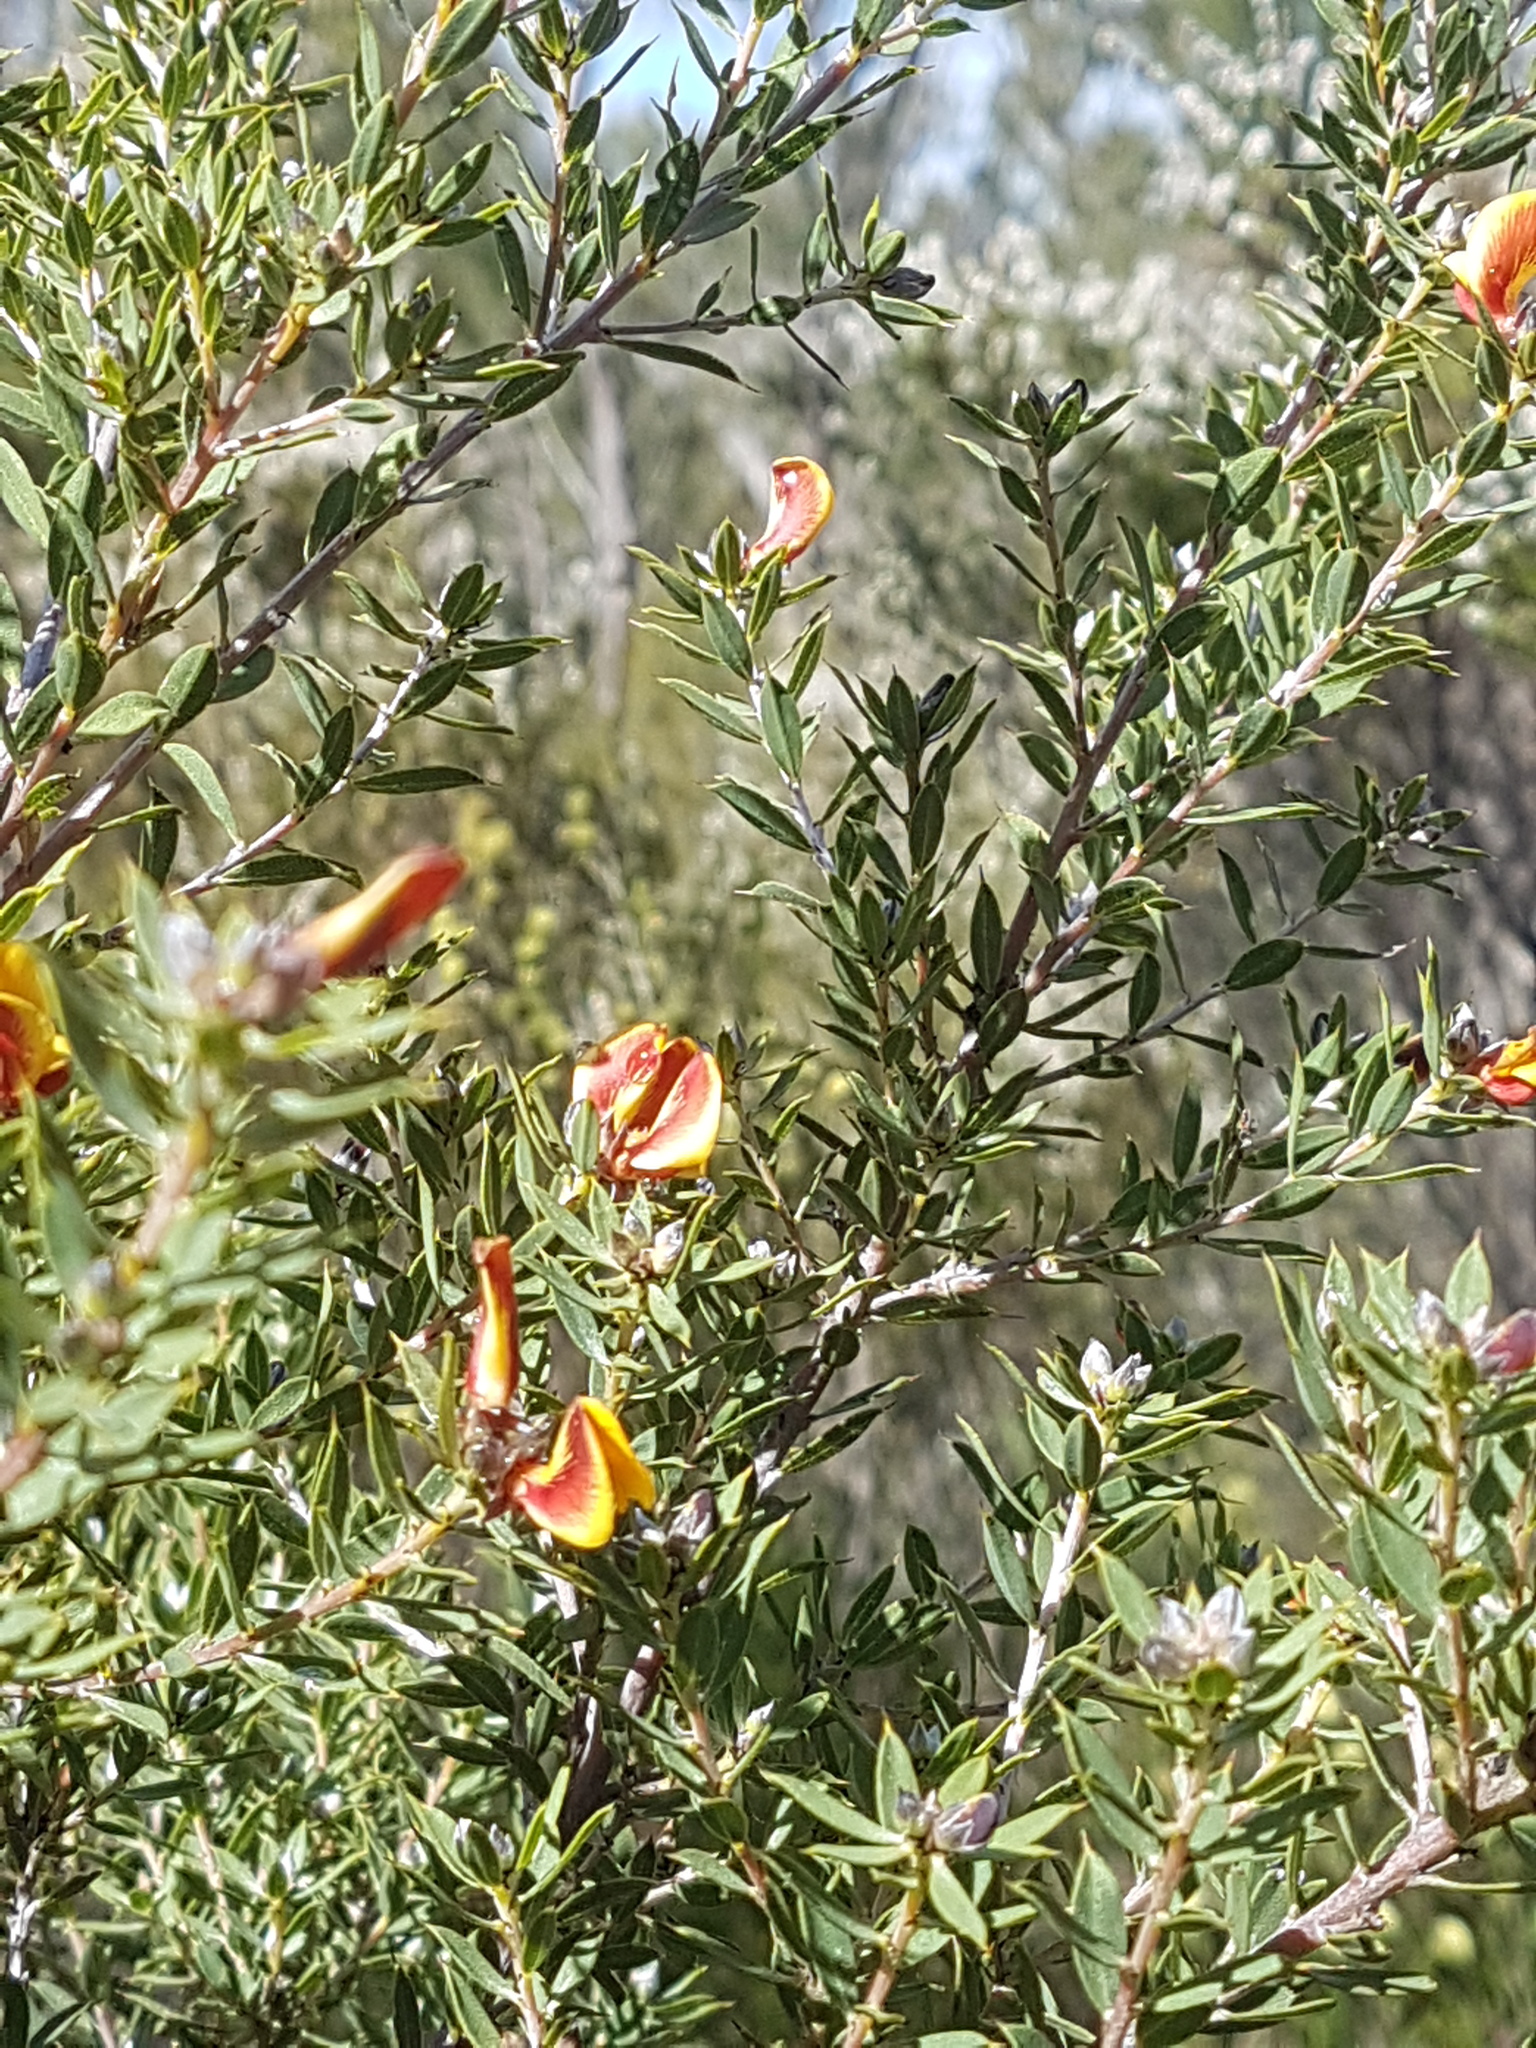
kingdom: Plantae
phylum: Tracheophyta
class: Magnoliopsida
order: Fabales
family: Fabaceae
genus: Pultenaea
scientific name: Pultenaea reticulata
